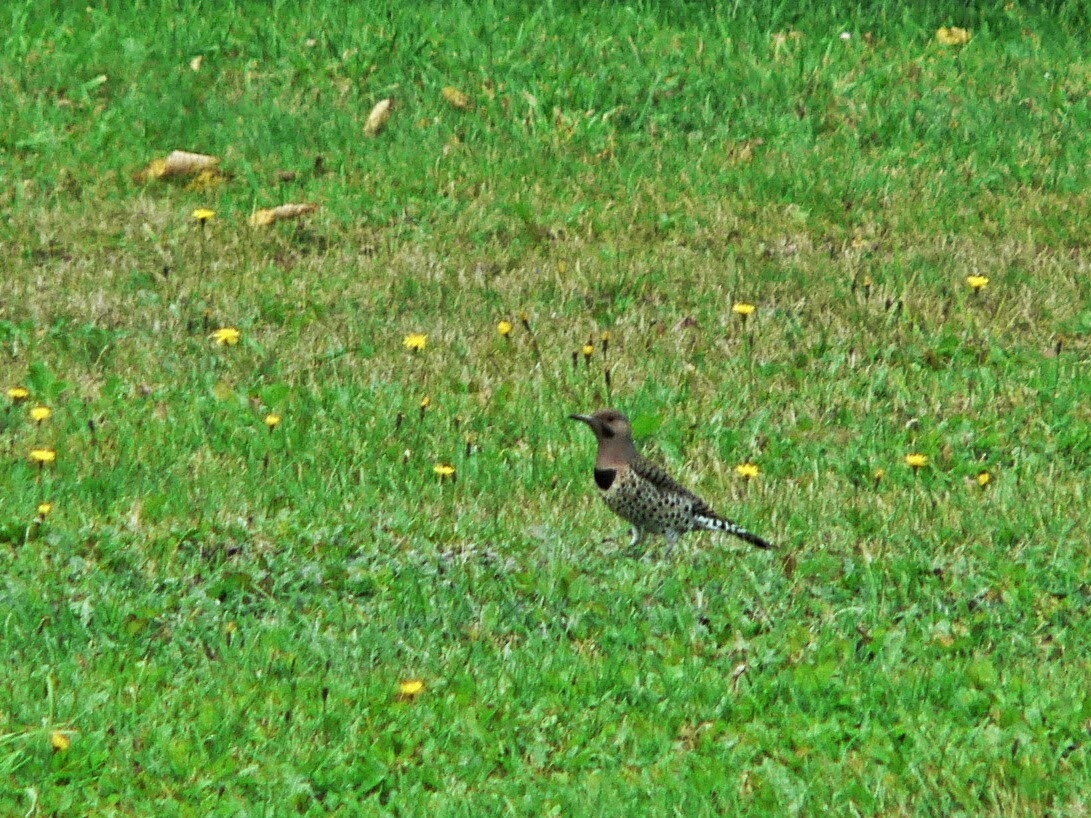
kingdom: Animalia
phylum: Chordata
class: Aves
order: Piciformes
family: Picidae
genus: Colaptes
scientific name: Colaptes auratus
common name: Northern flicker
